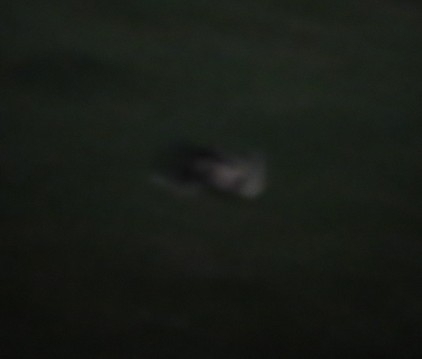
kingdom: Animalia
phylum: Chordata
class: Mammalia
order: Carnivora
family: Mephitidae
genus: Mephitis
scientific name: Mephitis mephitis
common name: Striped skunk
